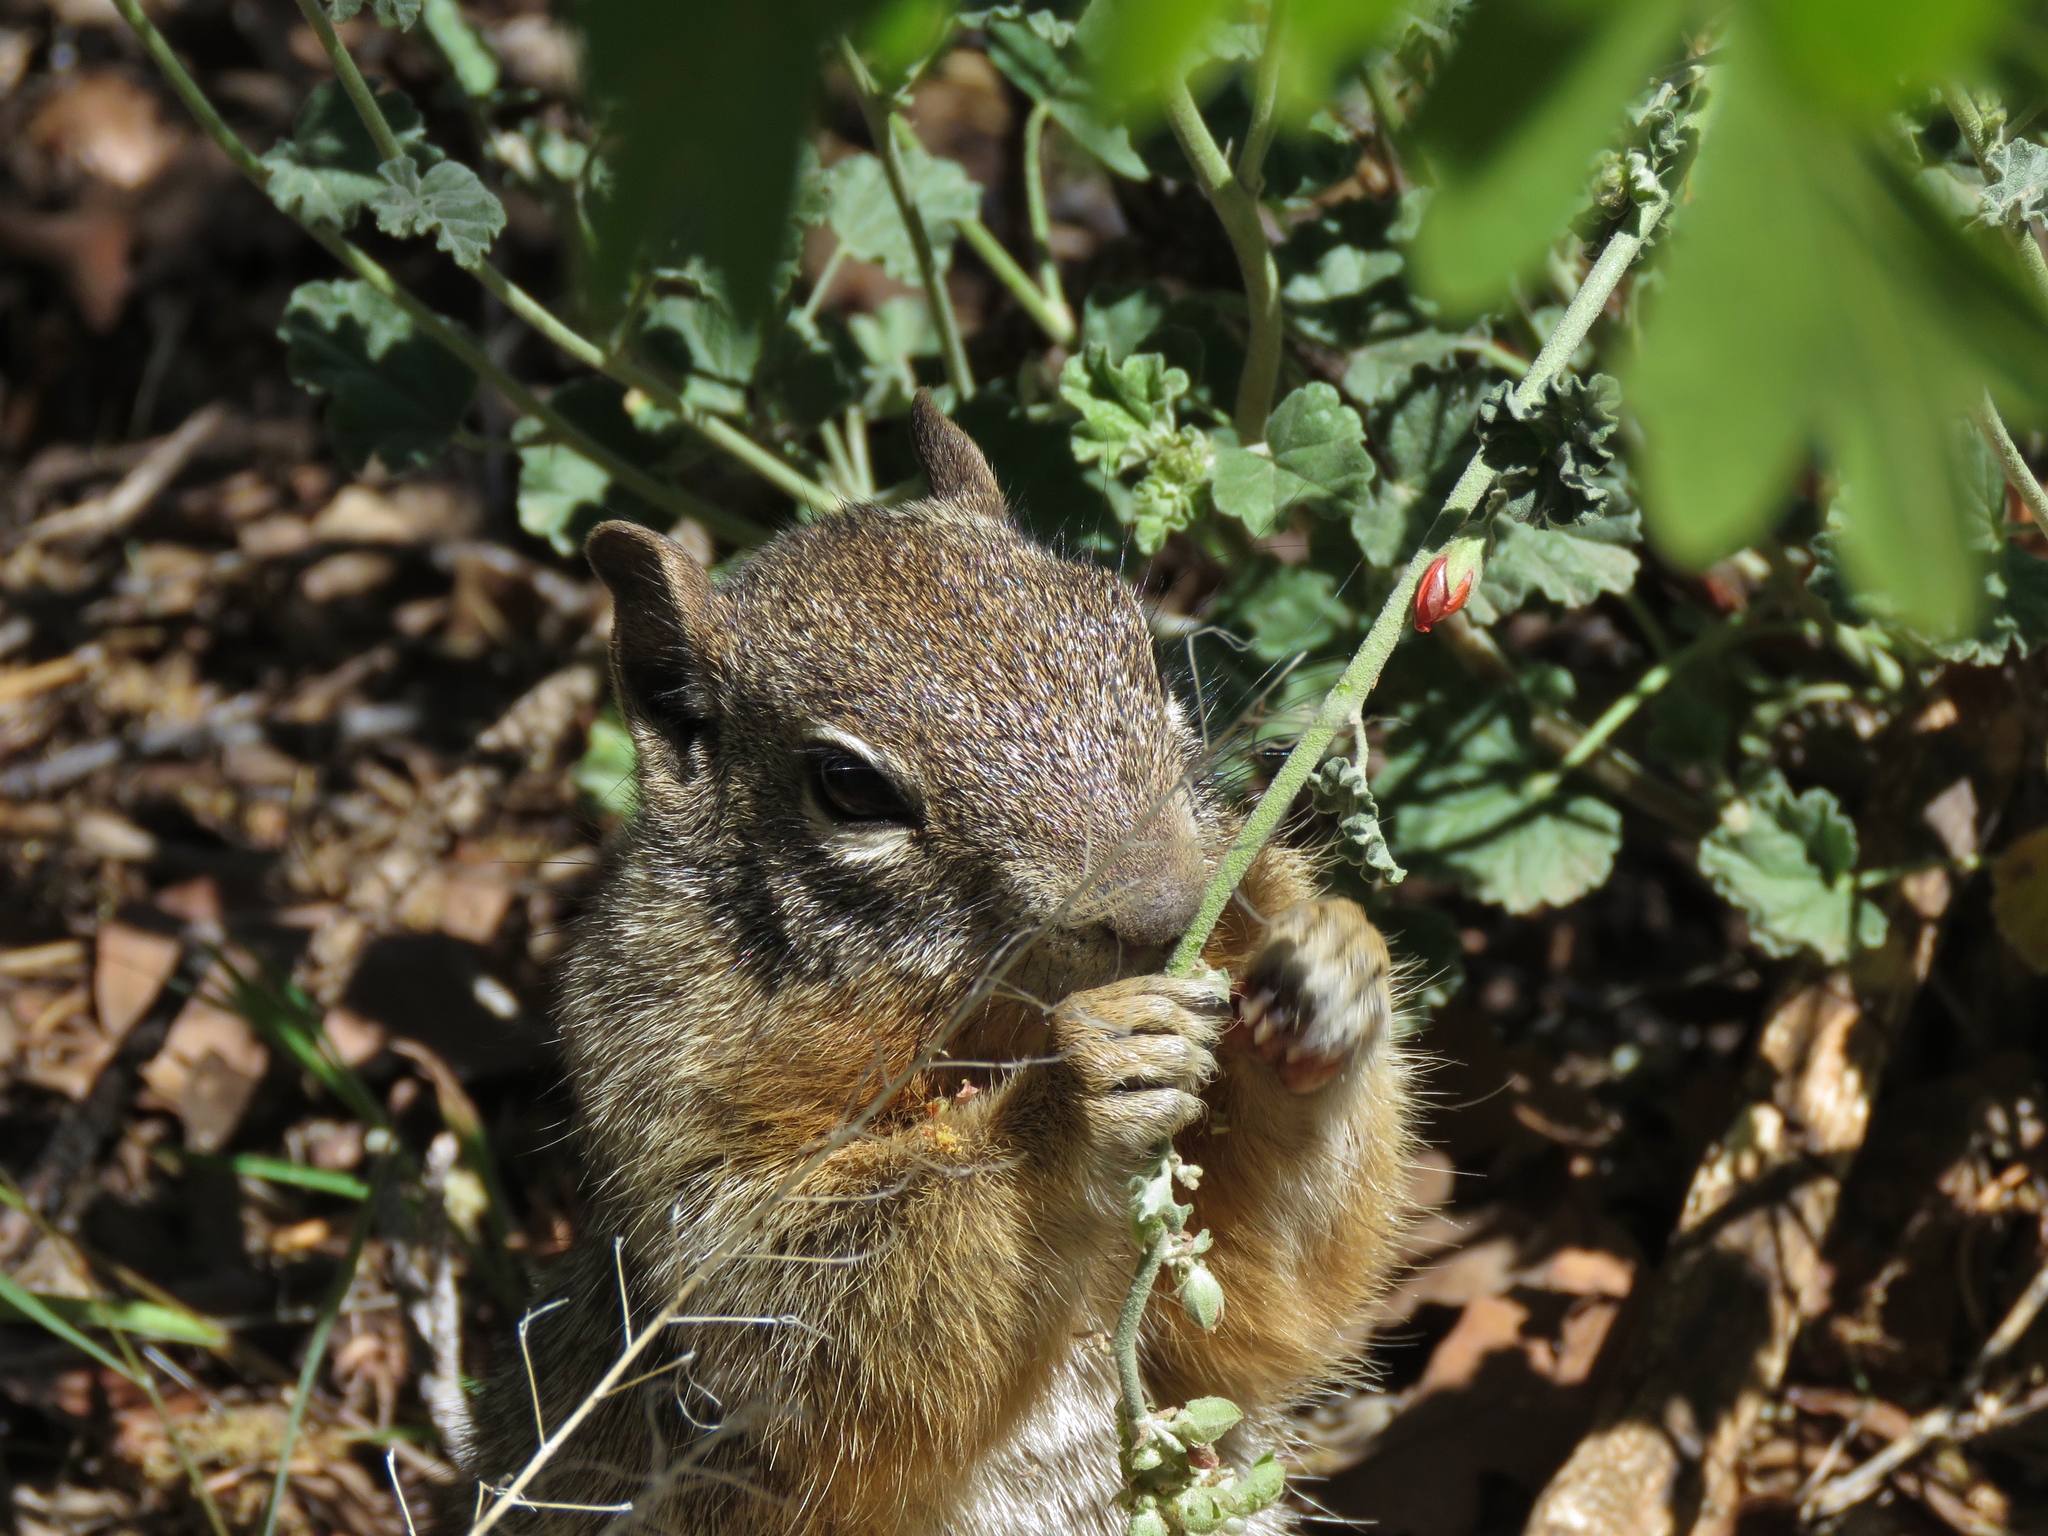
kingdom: Animalia
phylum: Chordata
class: Mammalia
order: Rodentia
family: Sciuridae
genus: Otospermophilus
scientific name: Otospermophilus variegatus
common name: Rock squirrel
